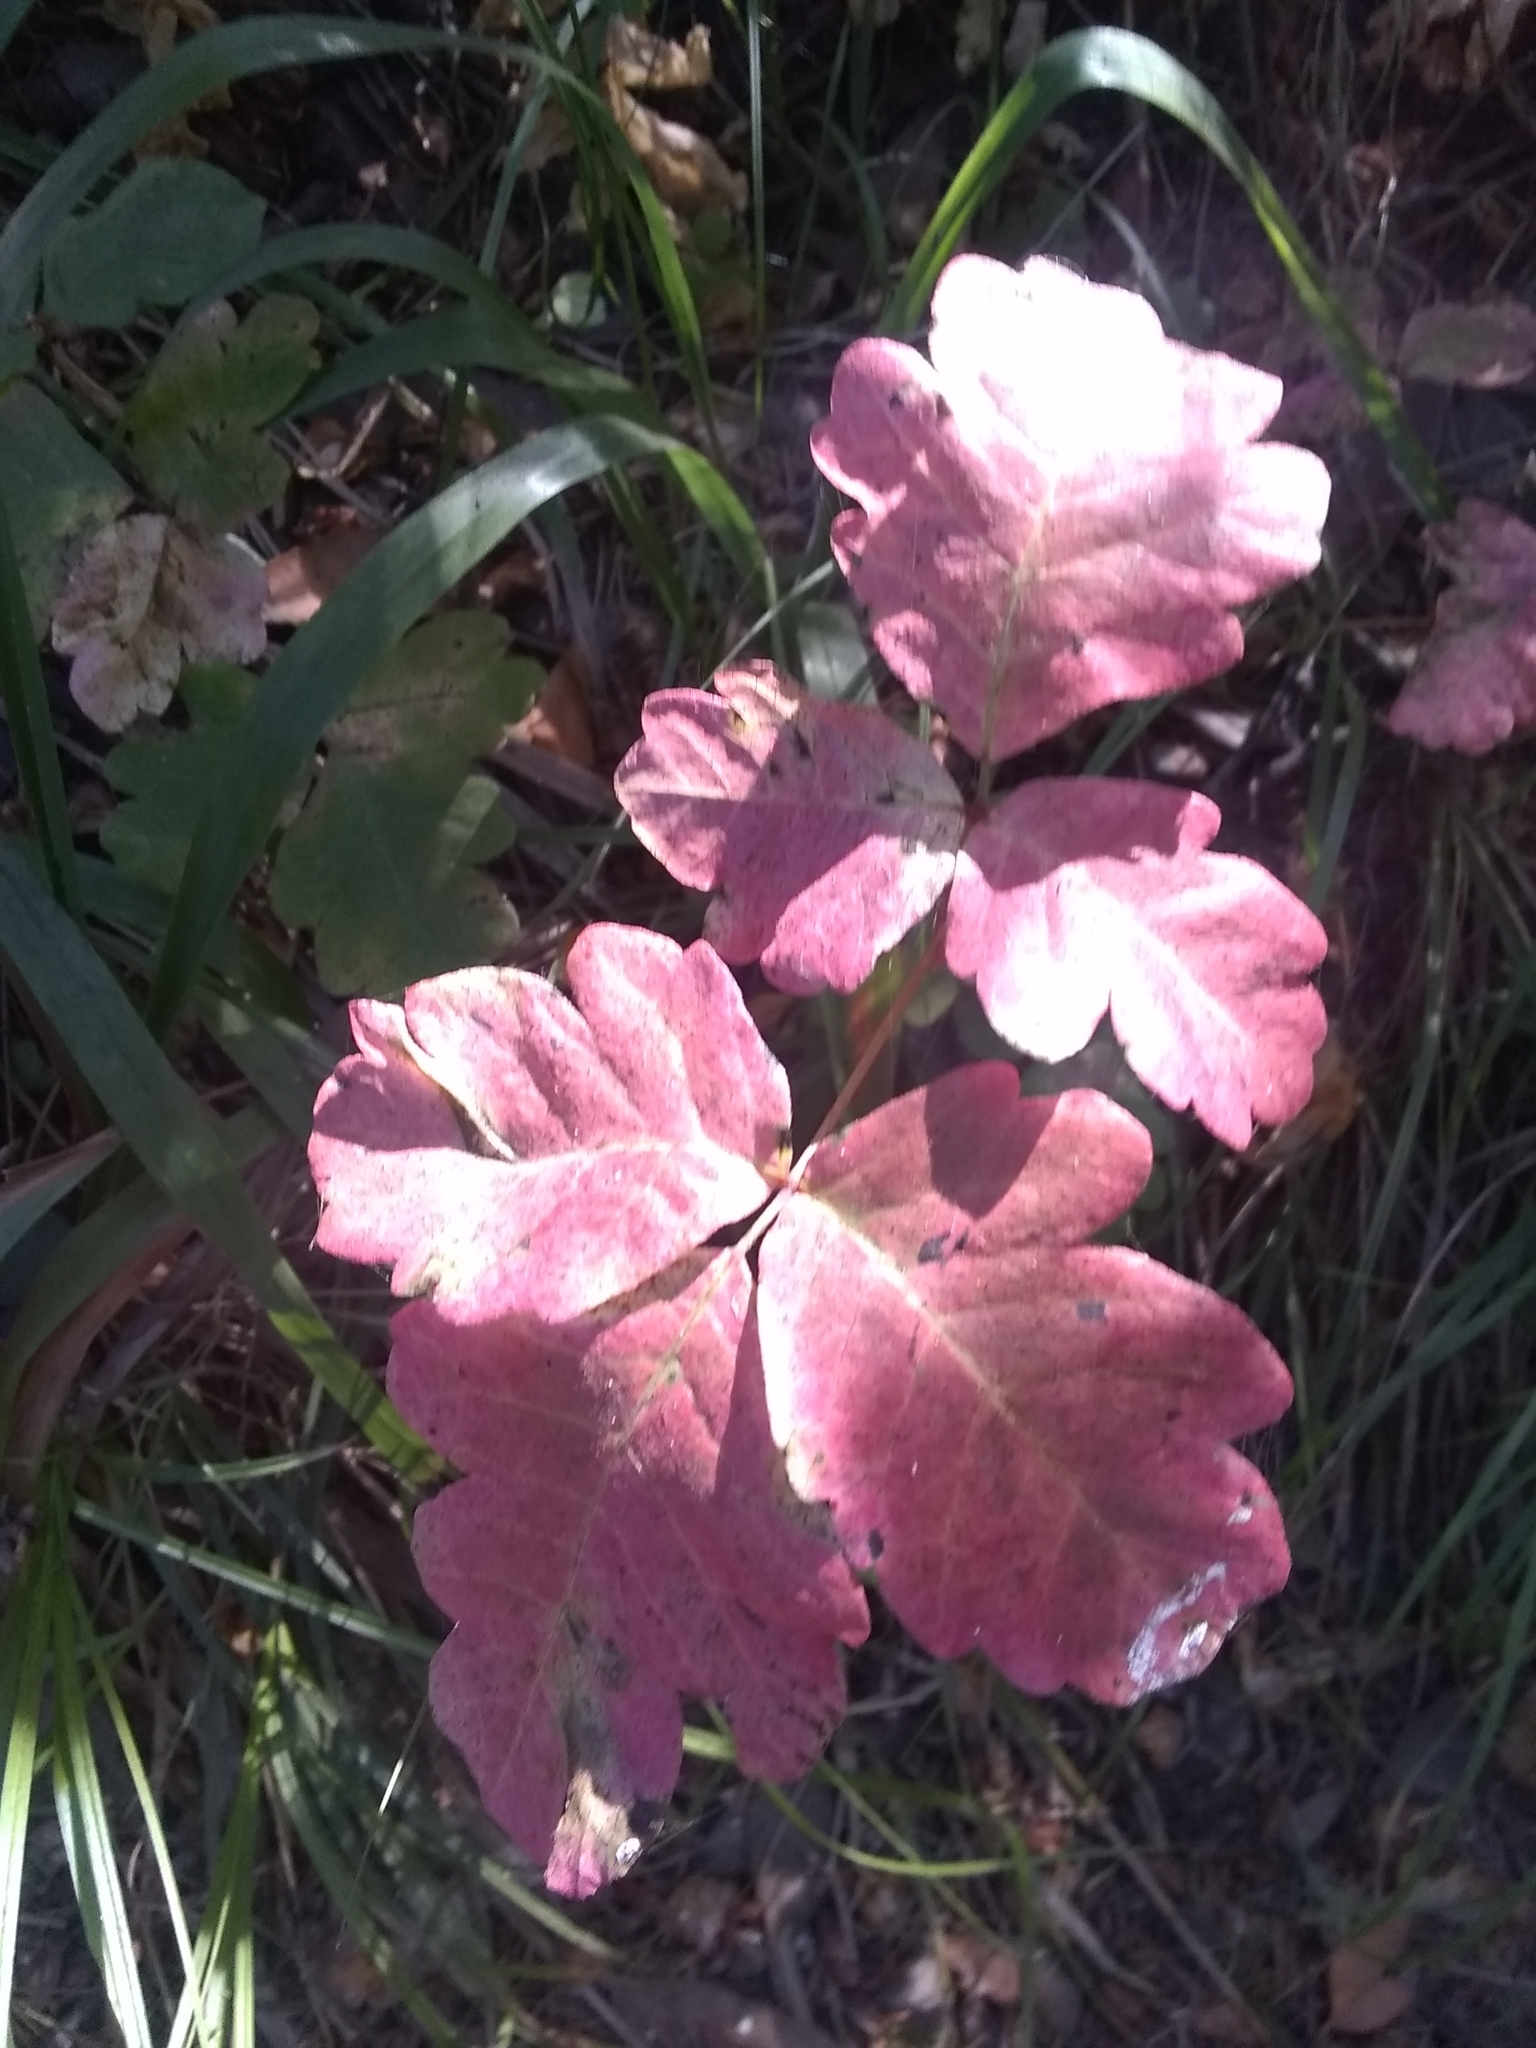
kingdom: Plantae
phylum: Tracheophyta
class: Magnoliopsida
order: Sapindales
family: Anacardiaceae
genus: Toxicodendron
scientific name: Toxicodendron diversilobum
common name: Pacific poison-oak
